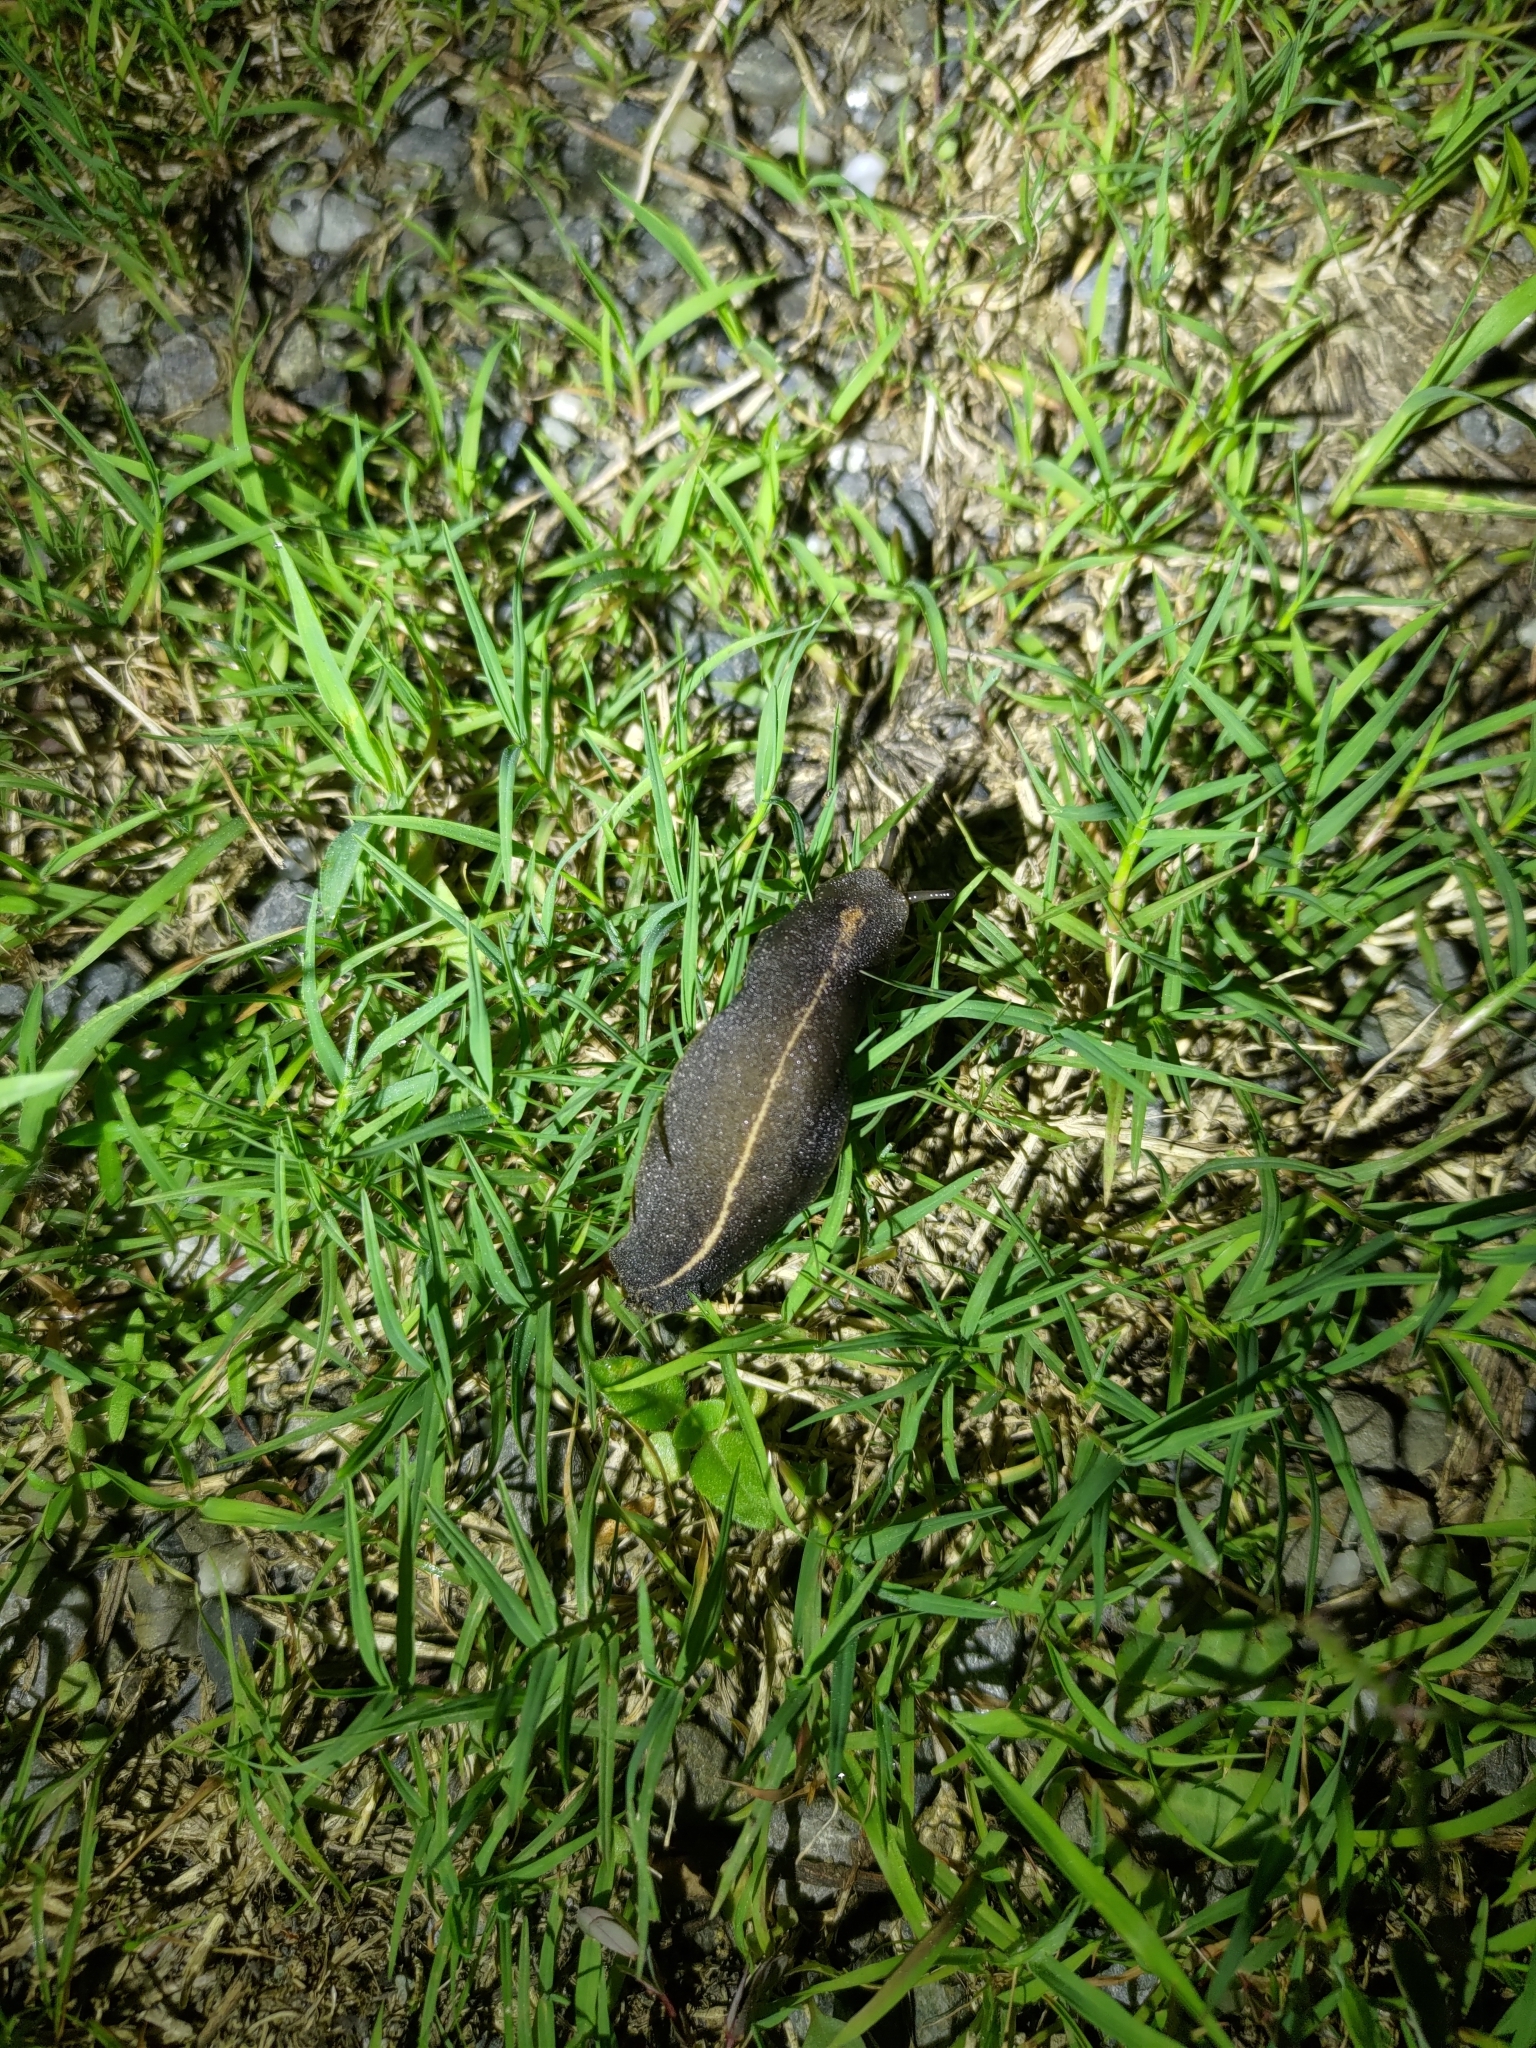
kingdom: Animalia
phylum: Mollusca
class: Gastropoda
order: Systellommatophora
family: Veronicellidae
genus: Laevicaulis
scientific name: Laevicaulis alte
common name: Tropical leatherleaf
